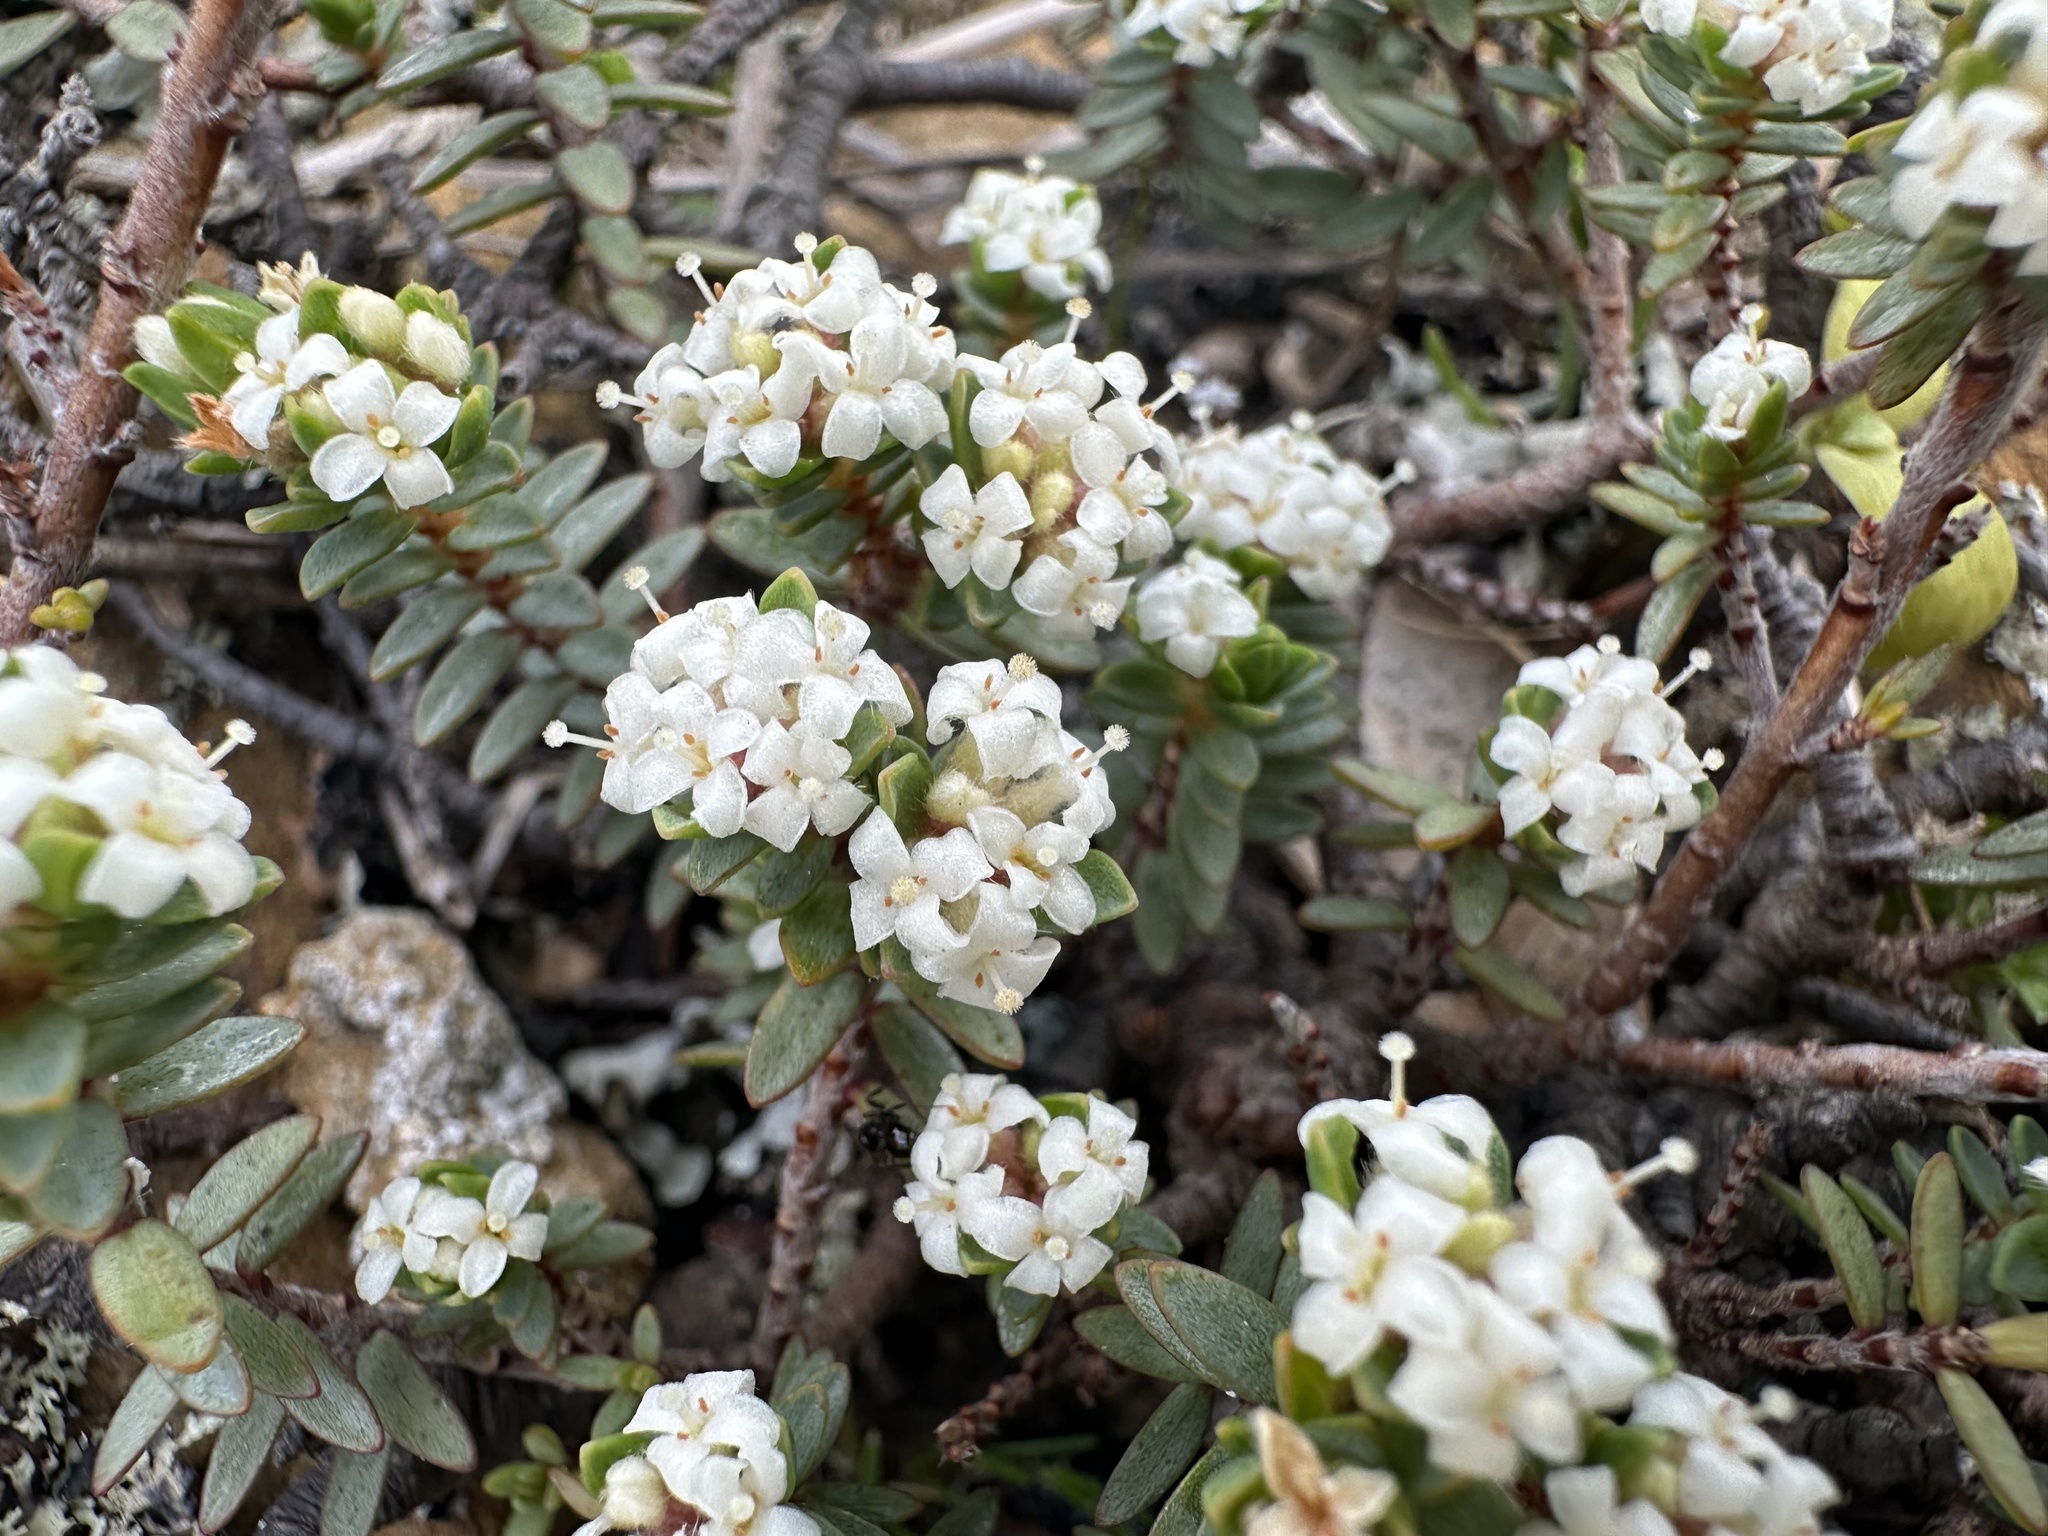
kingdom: Plantae
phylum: Tracheophyta
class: Magnoliopsida
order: Malvales
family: Thymelaeaceae
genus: Pimelea
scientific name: Pimelea prostrata
